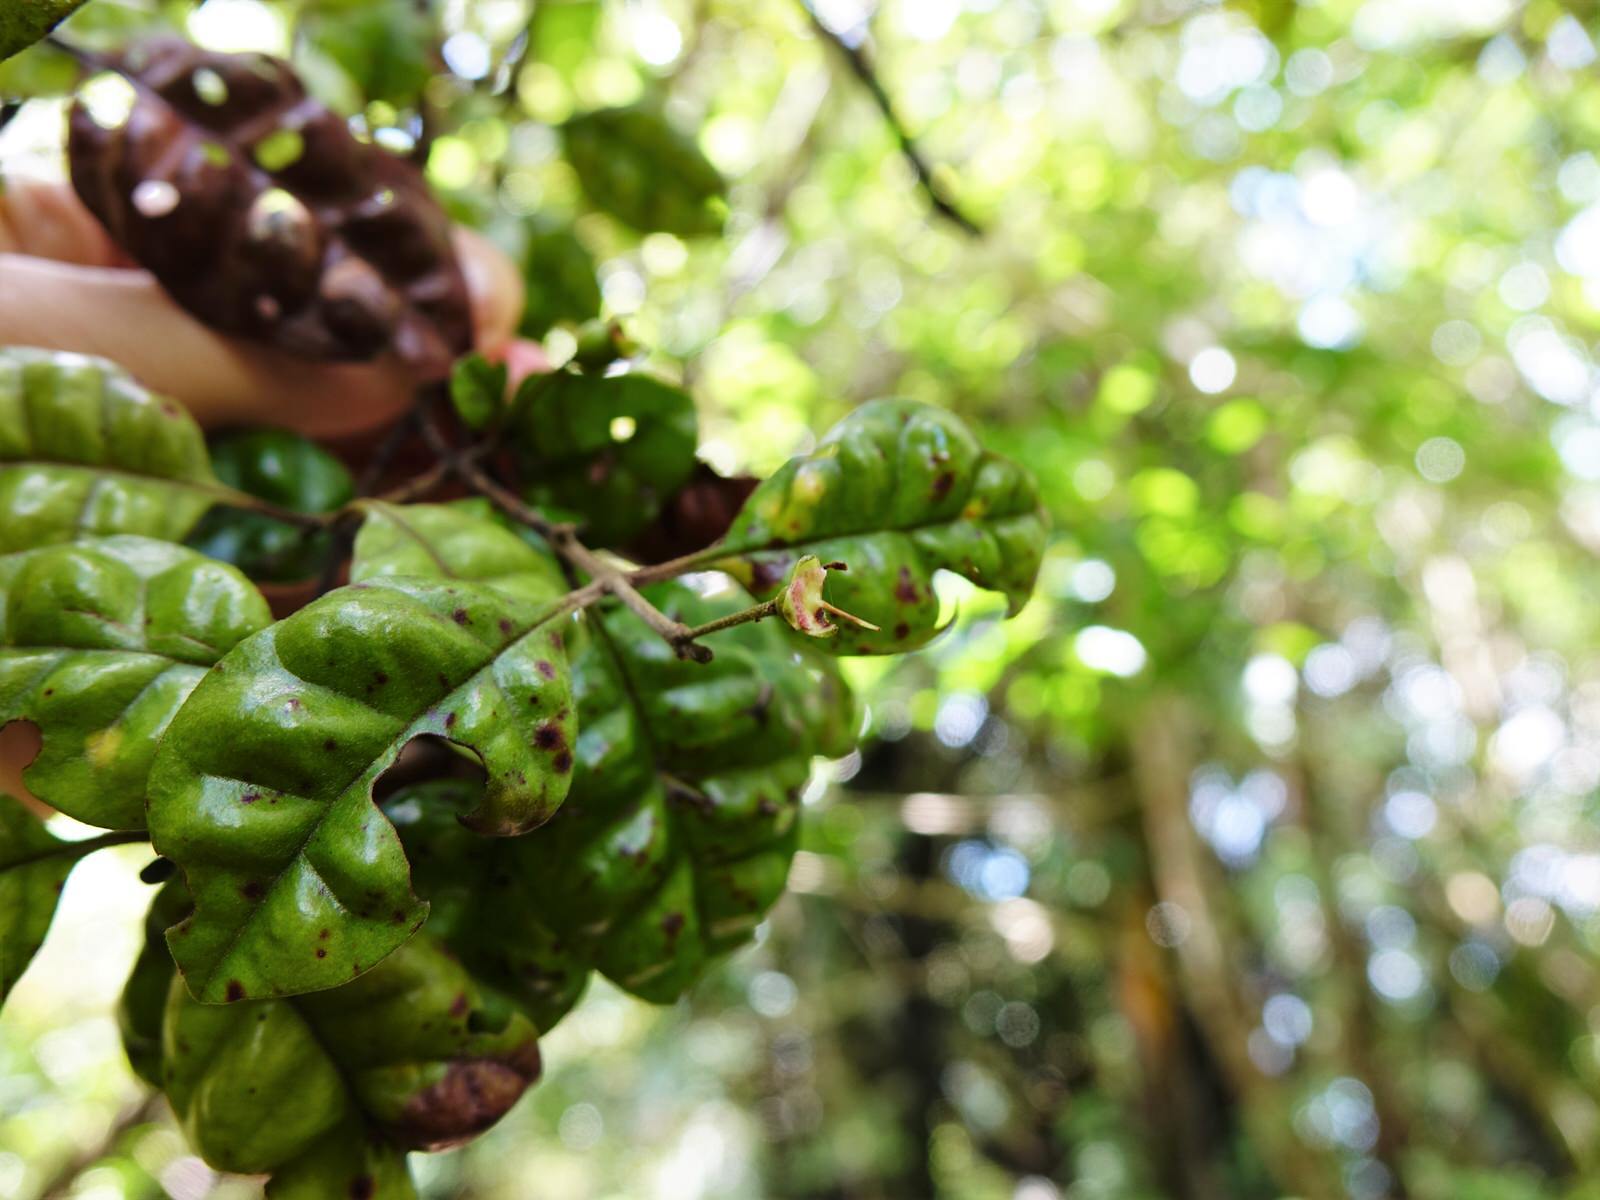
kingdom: Plantae
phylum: Tracheophyta
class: Magnoliopsida
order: Myrtales
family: Myrtaceae
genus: Lophomyrtus
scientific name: Lophomyrtus bullata
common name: Rama rama
